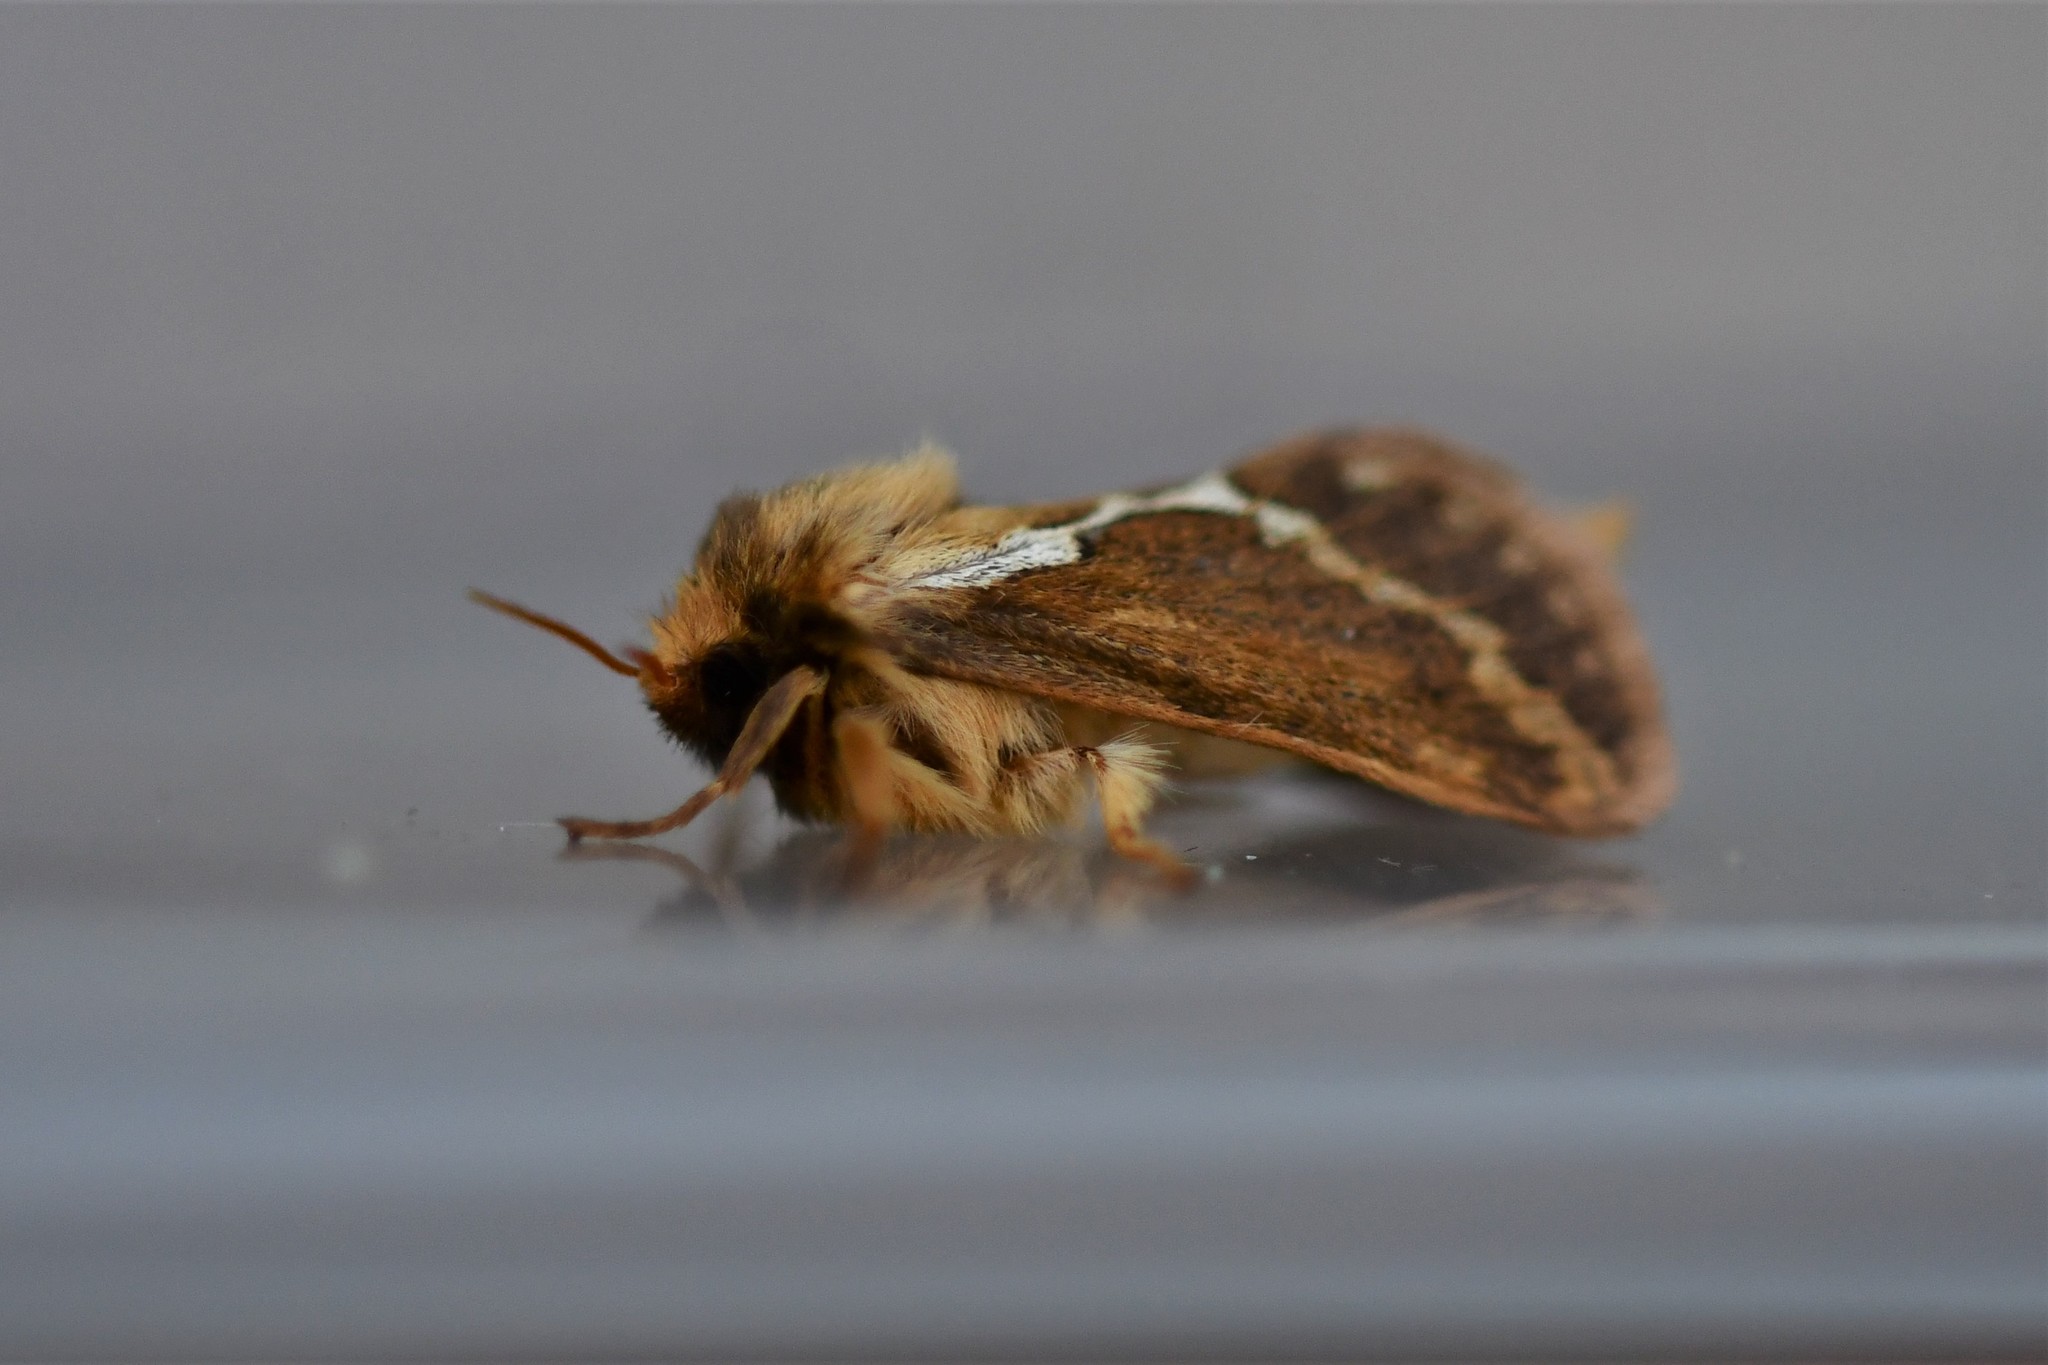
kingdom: Animalia
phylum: Arthropoda
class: Insecta
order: Lepidoptera
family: Hepialidae
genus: Korscheltellus
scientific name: Korscheltellus lupulina
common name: Common swift
